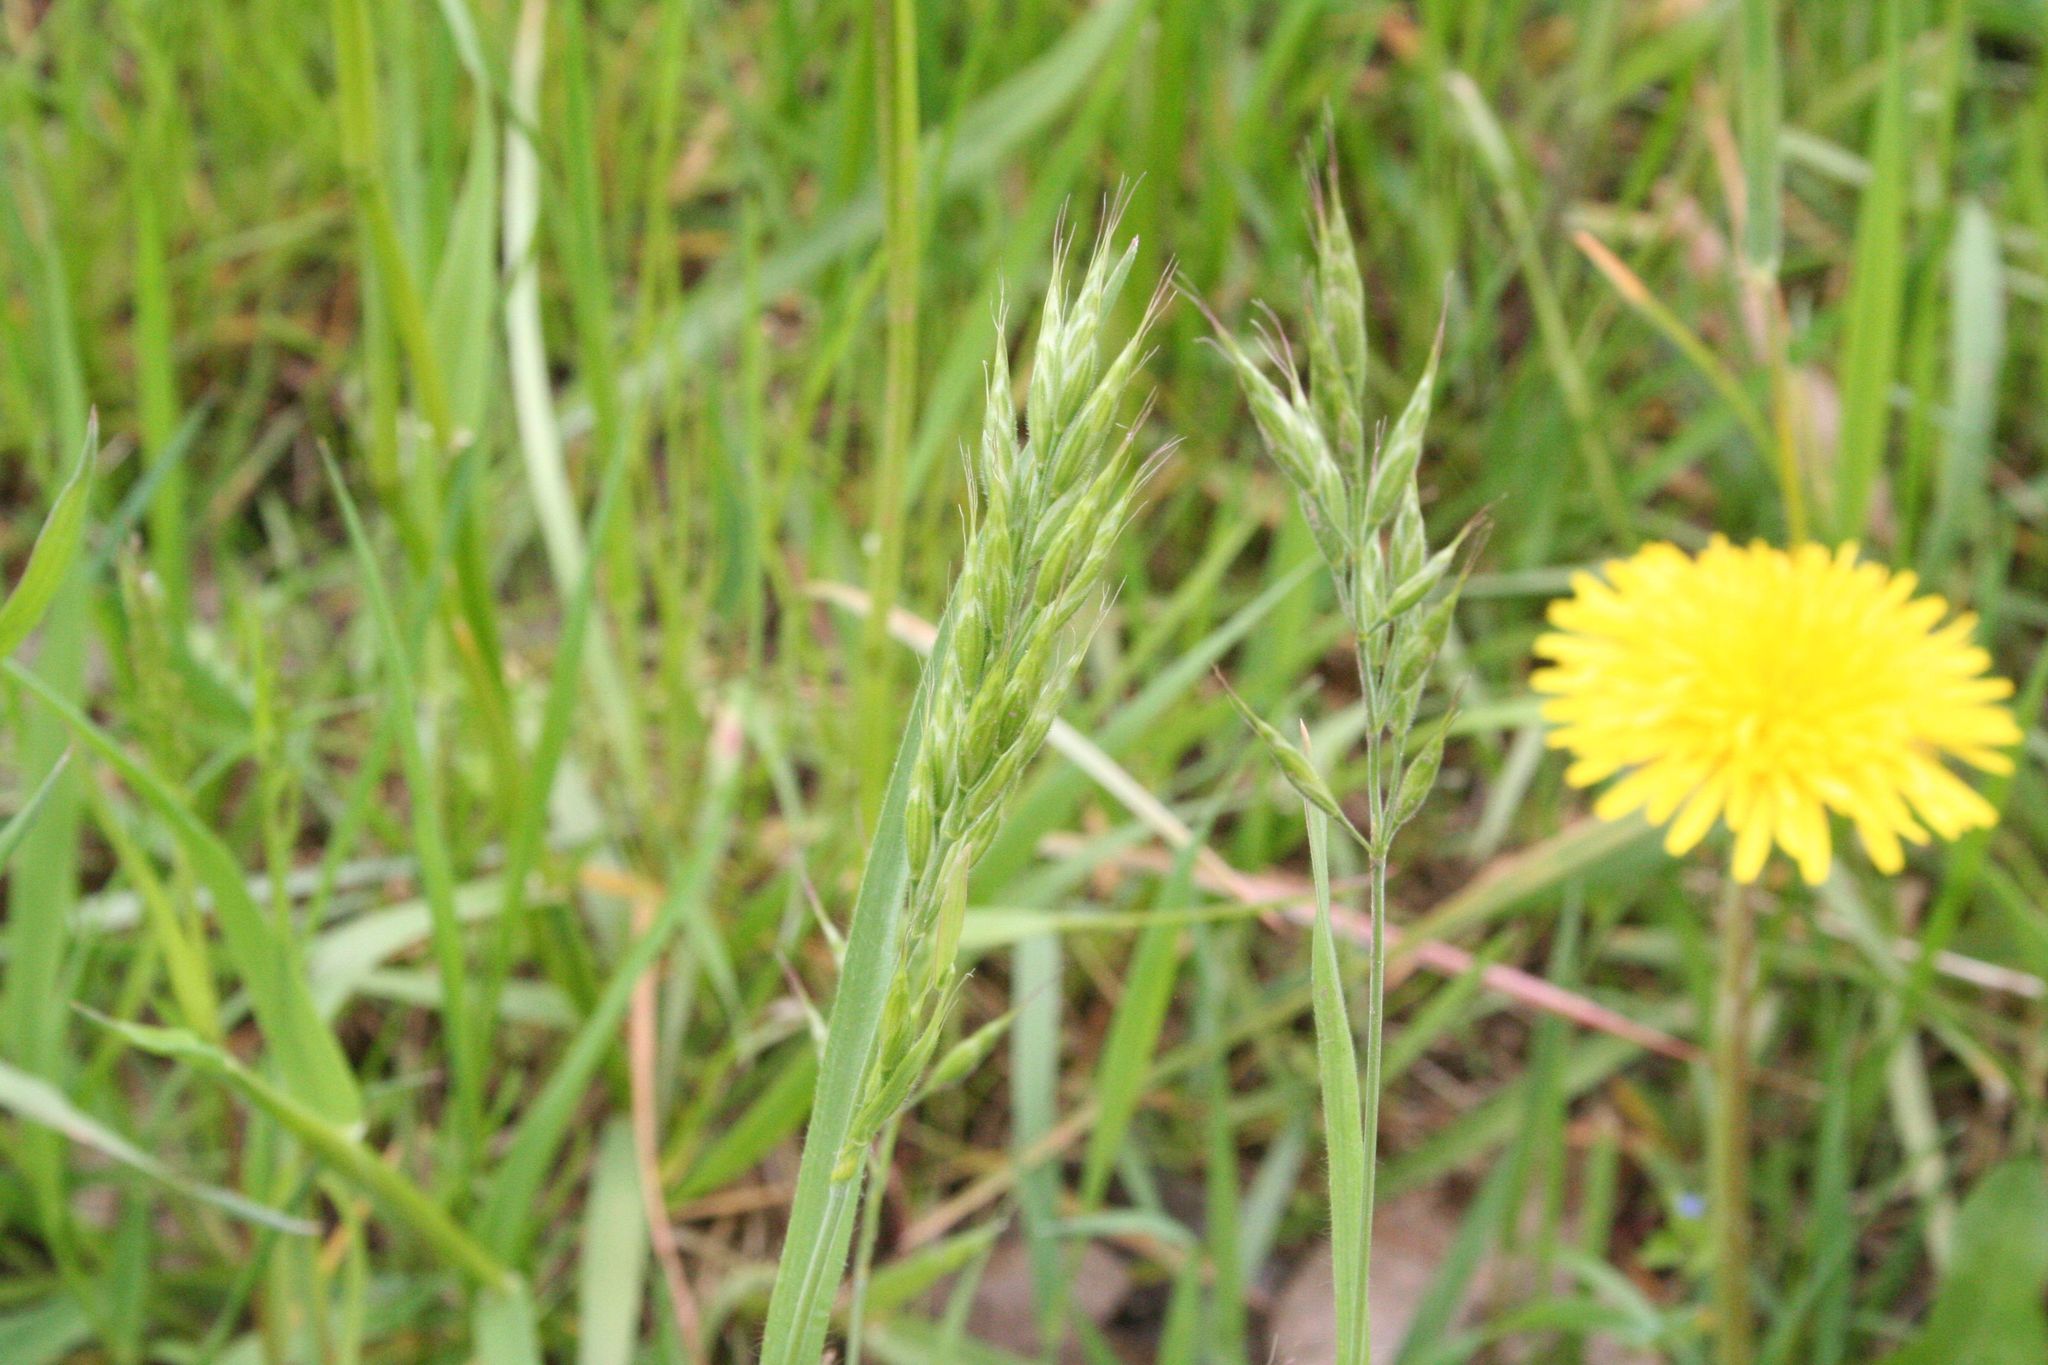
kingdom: Plantae
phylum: Tracheophyta
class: Liliopsida
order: Poales
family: Poaceae
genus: Bromus
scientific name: Bromus hordeaceus
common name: Soft brome
